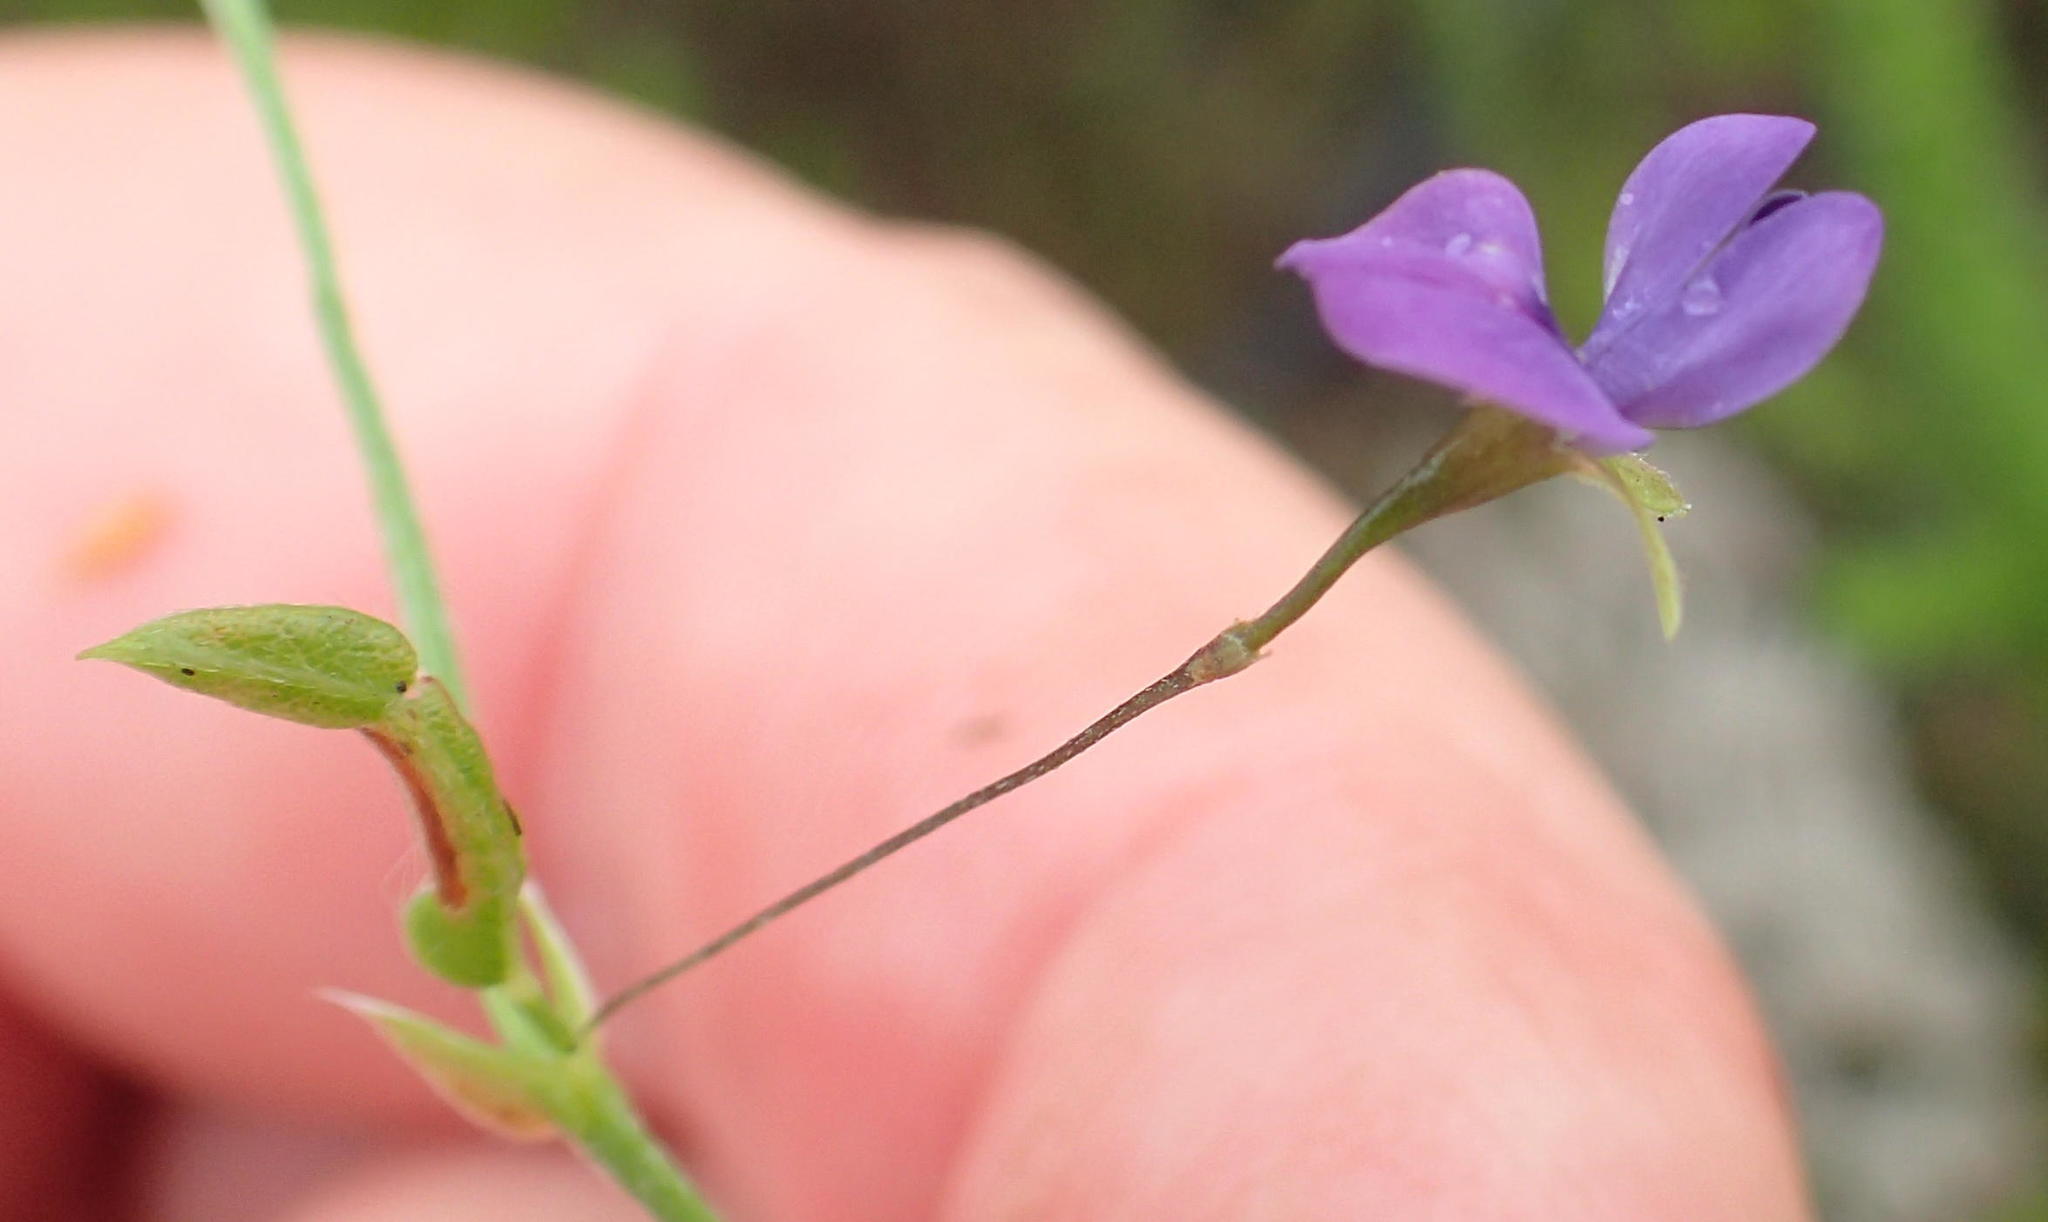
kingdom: Plantae
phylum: Tracheophyta
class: Magnoliopsida
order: Fabales
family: Fabaceae
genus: Psoralea
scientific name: Psoralea plauta
